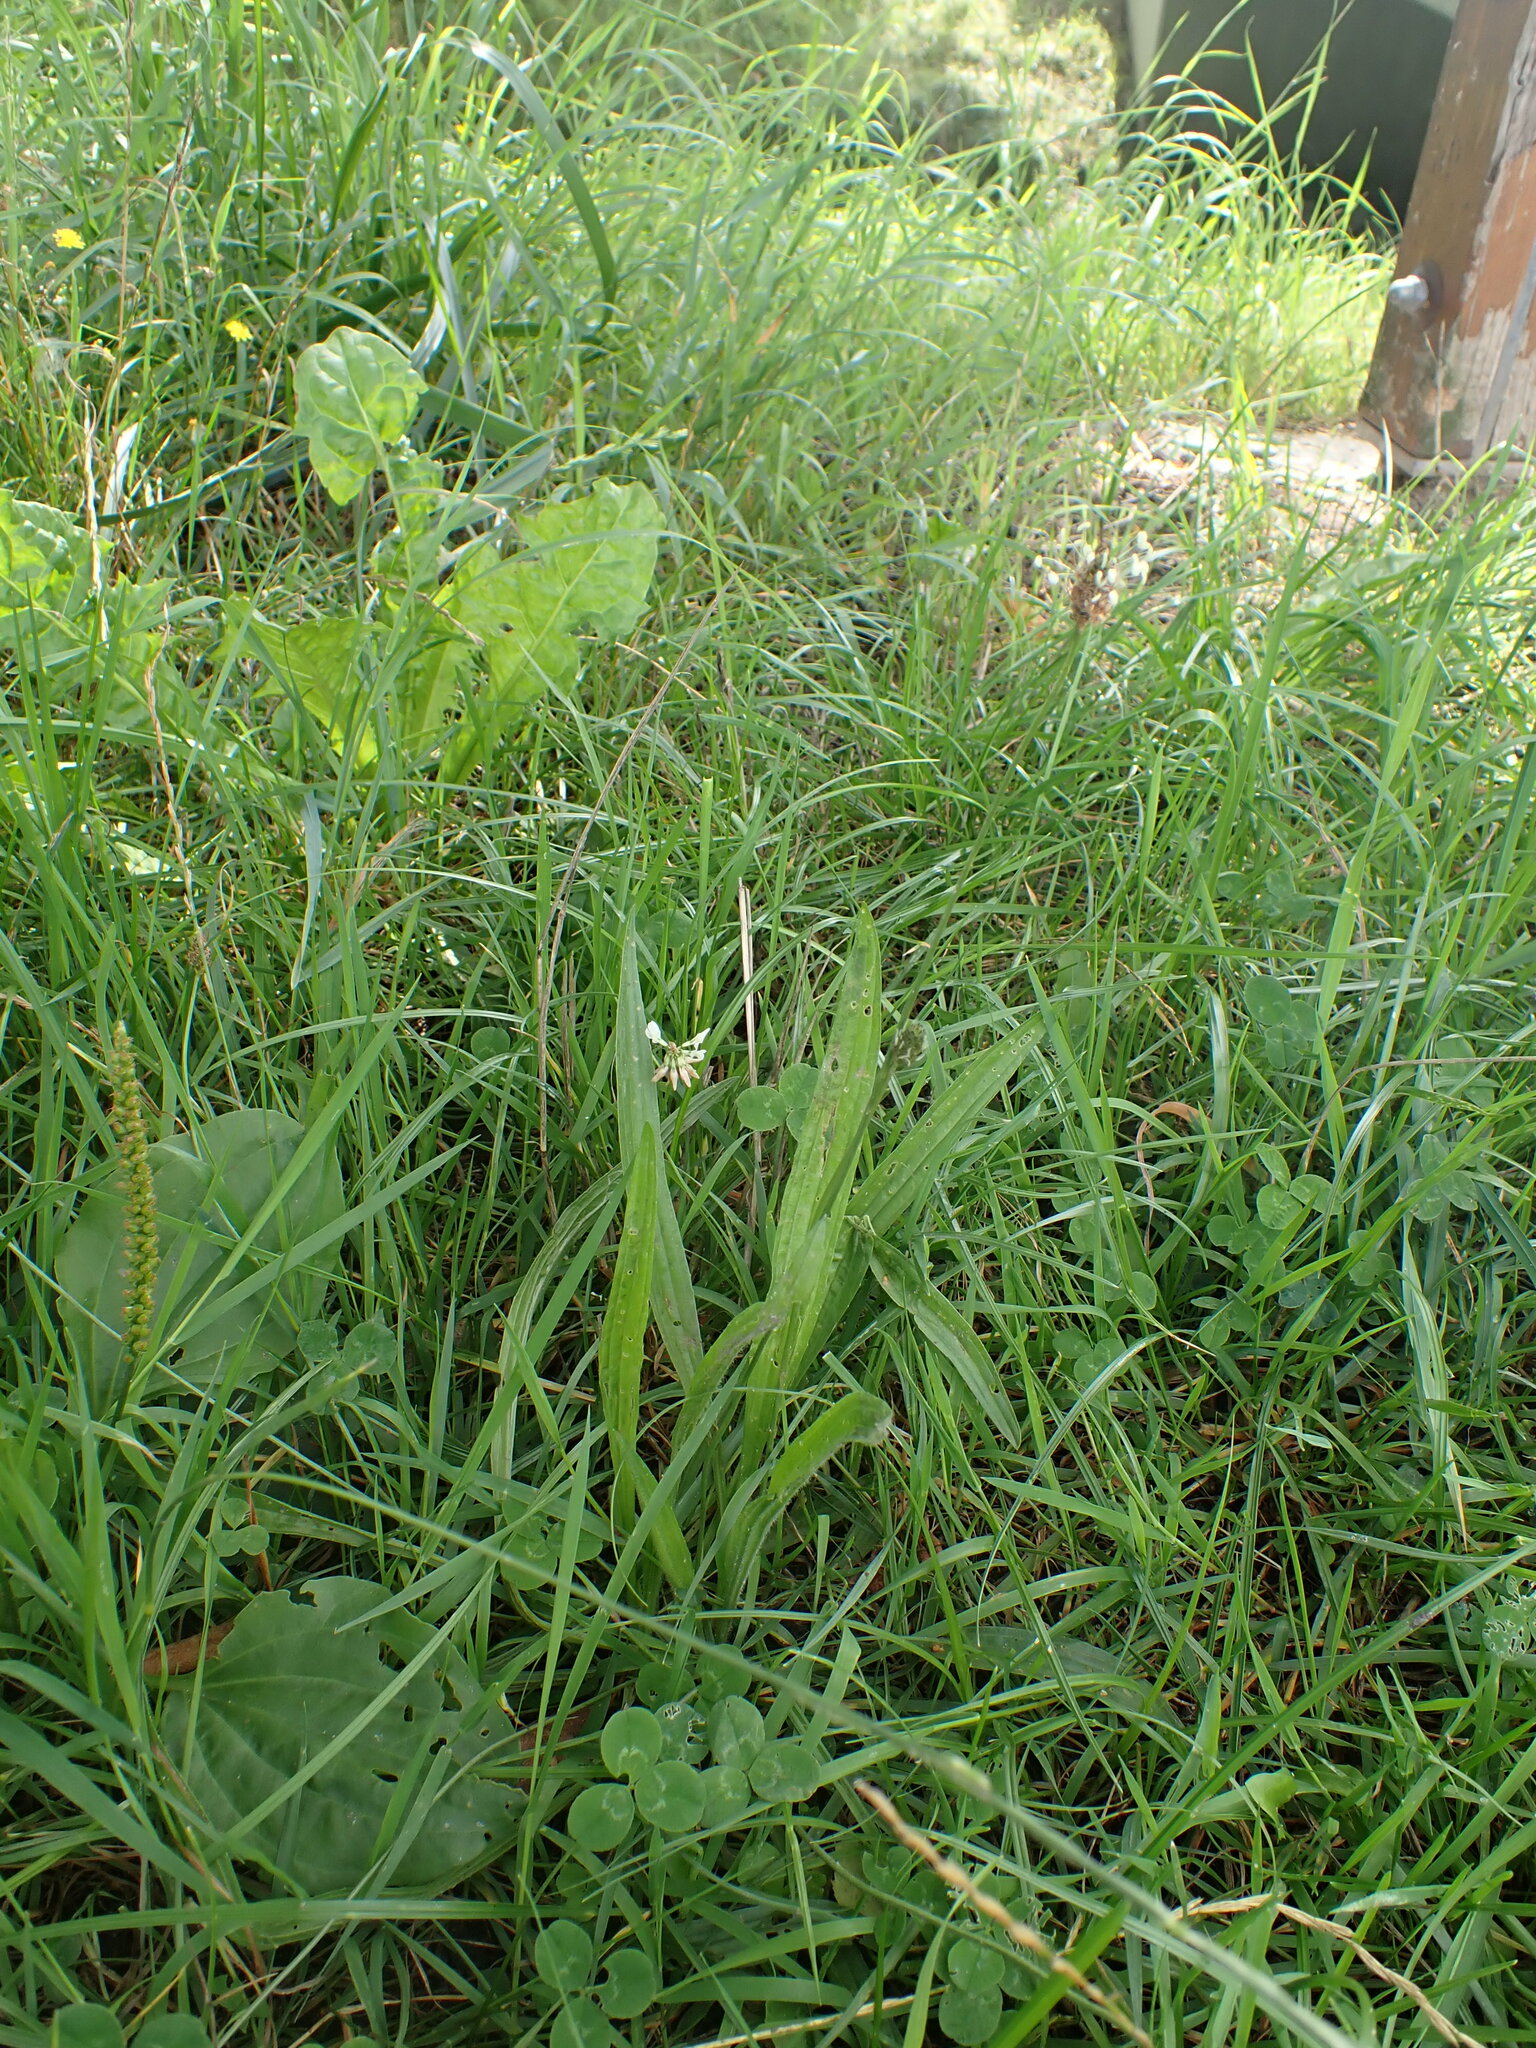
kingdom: Plantae
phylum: Tracheophyta
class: Magnoliopsida
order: Lamiales
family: Plantaginaceae
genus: Plantago
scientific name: Plantago lanceolata
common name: Ribwort plantain
